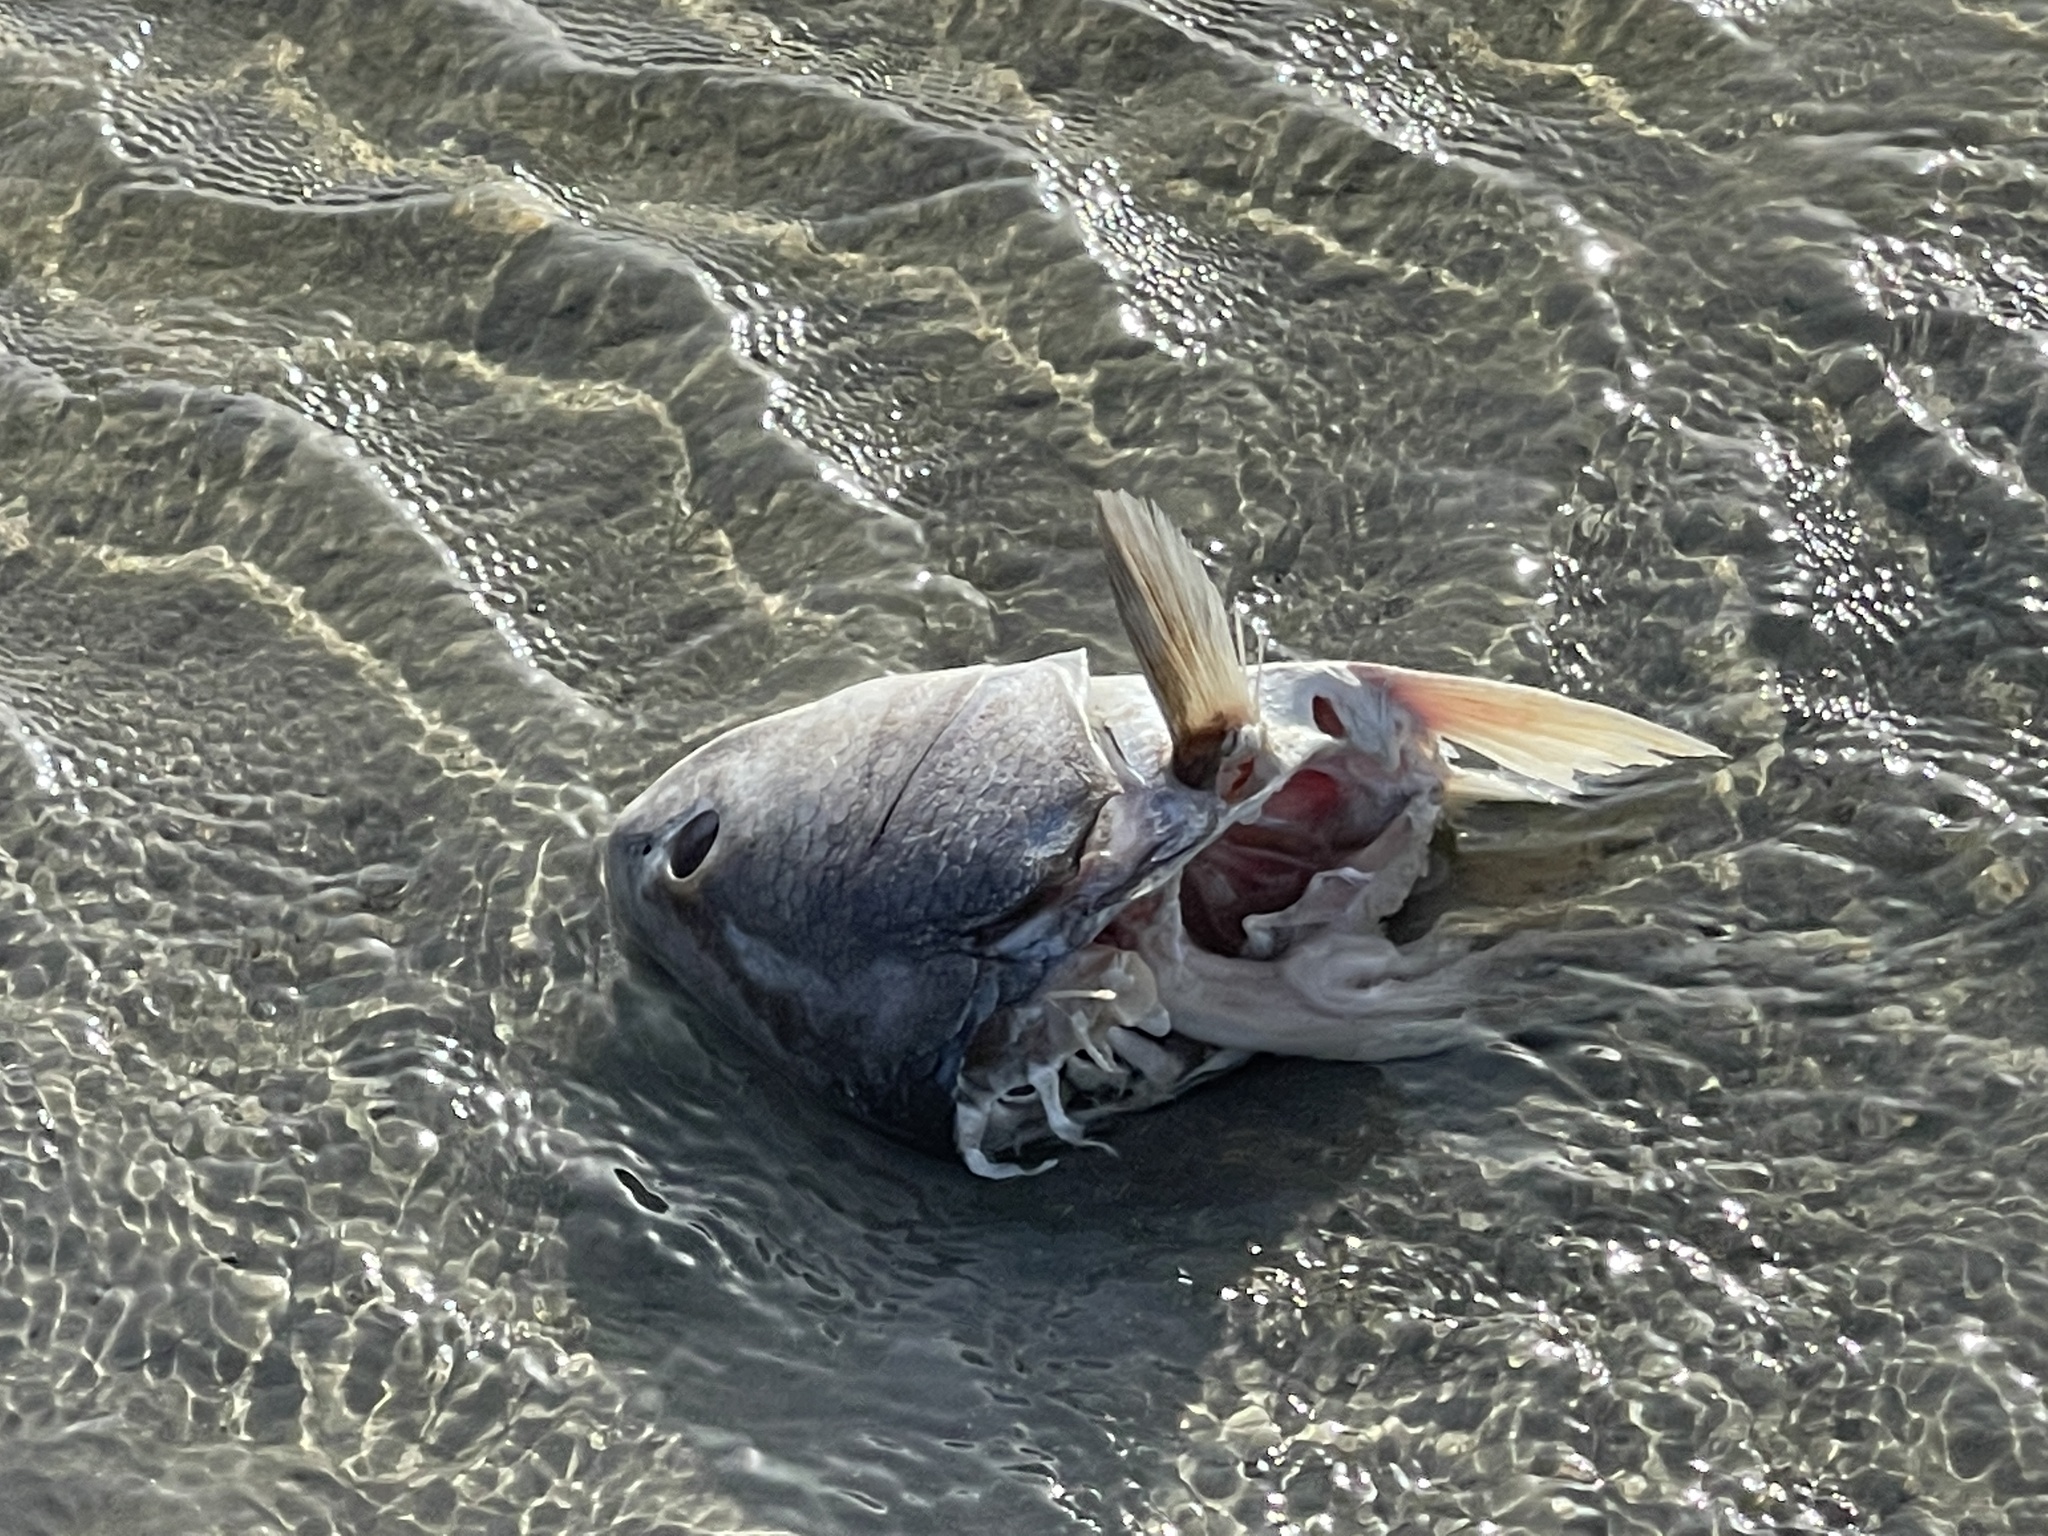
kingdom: Animalia
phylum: Chordata
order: Perciformes
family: Sciaenidae
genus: Sciaenops
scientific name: Sciaenops ocellatus
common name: Red drum
